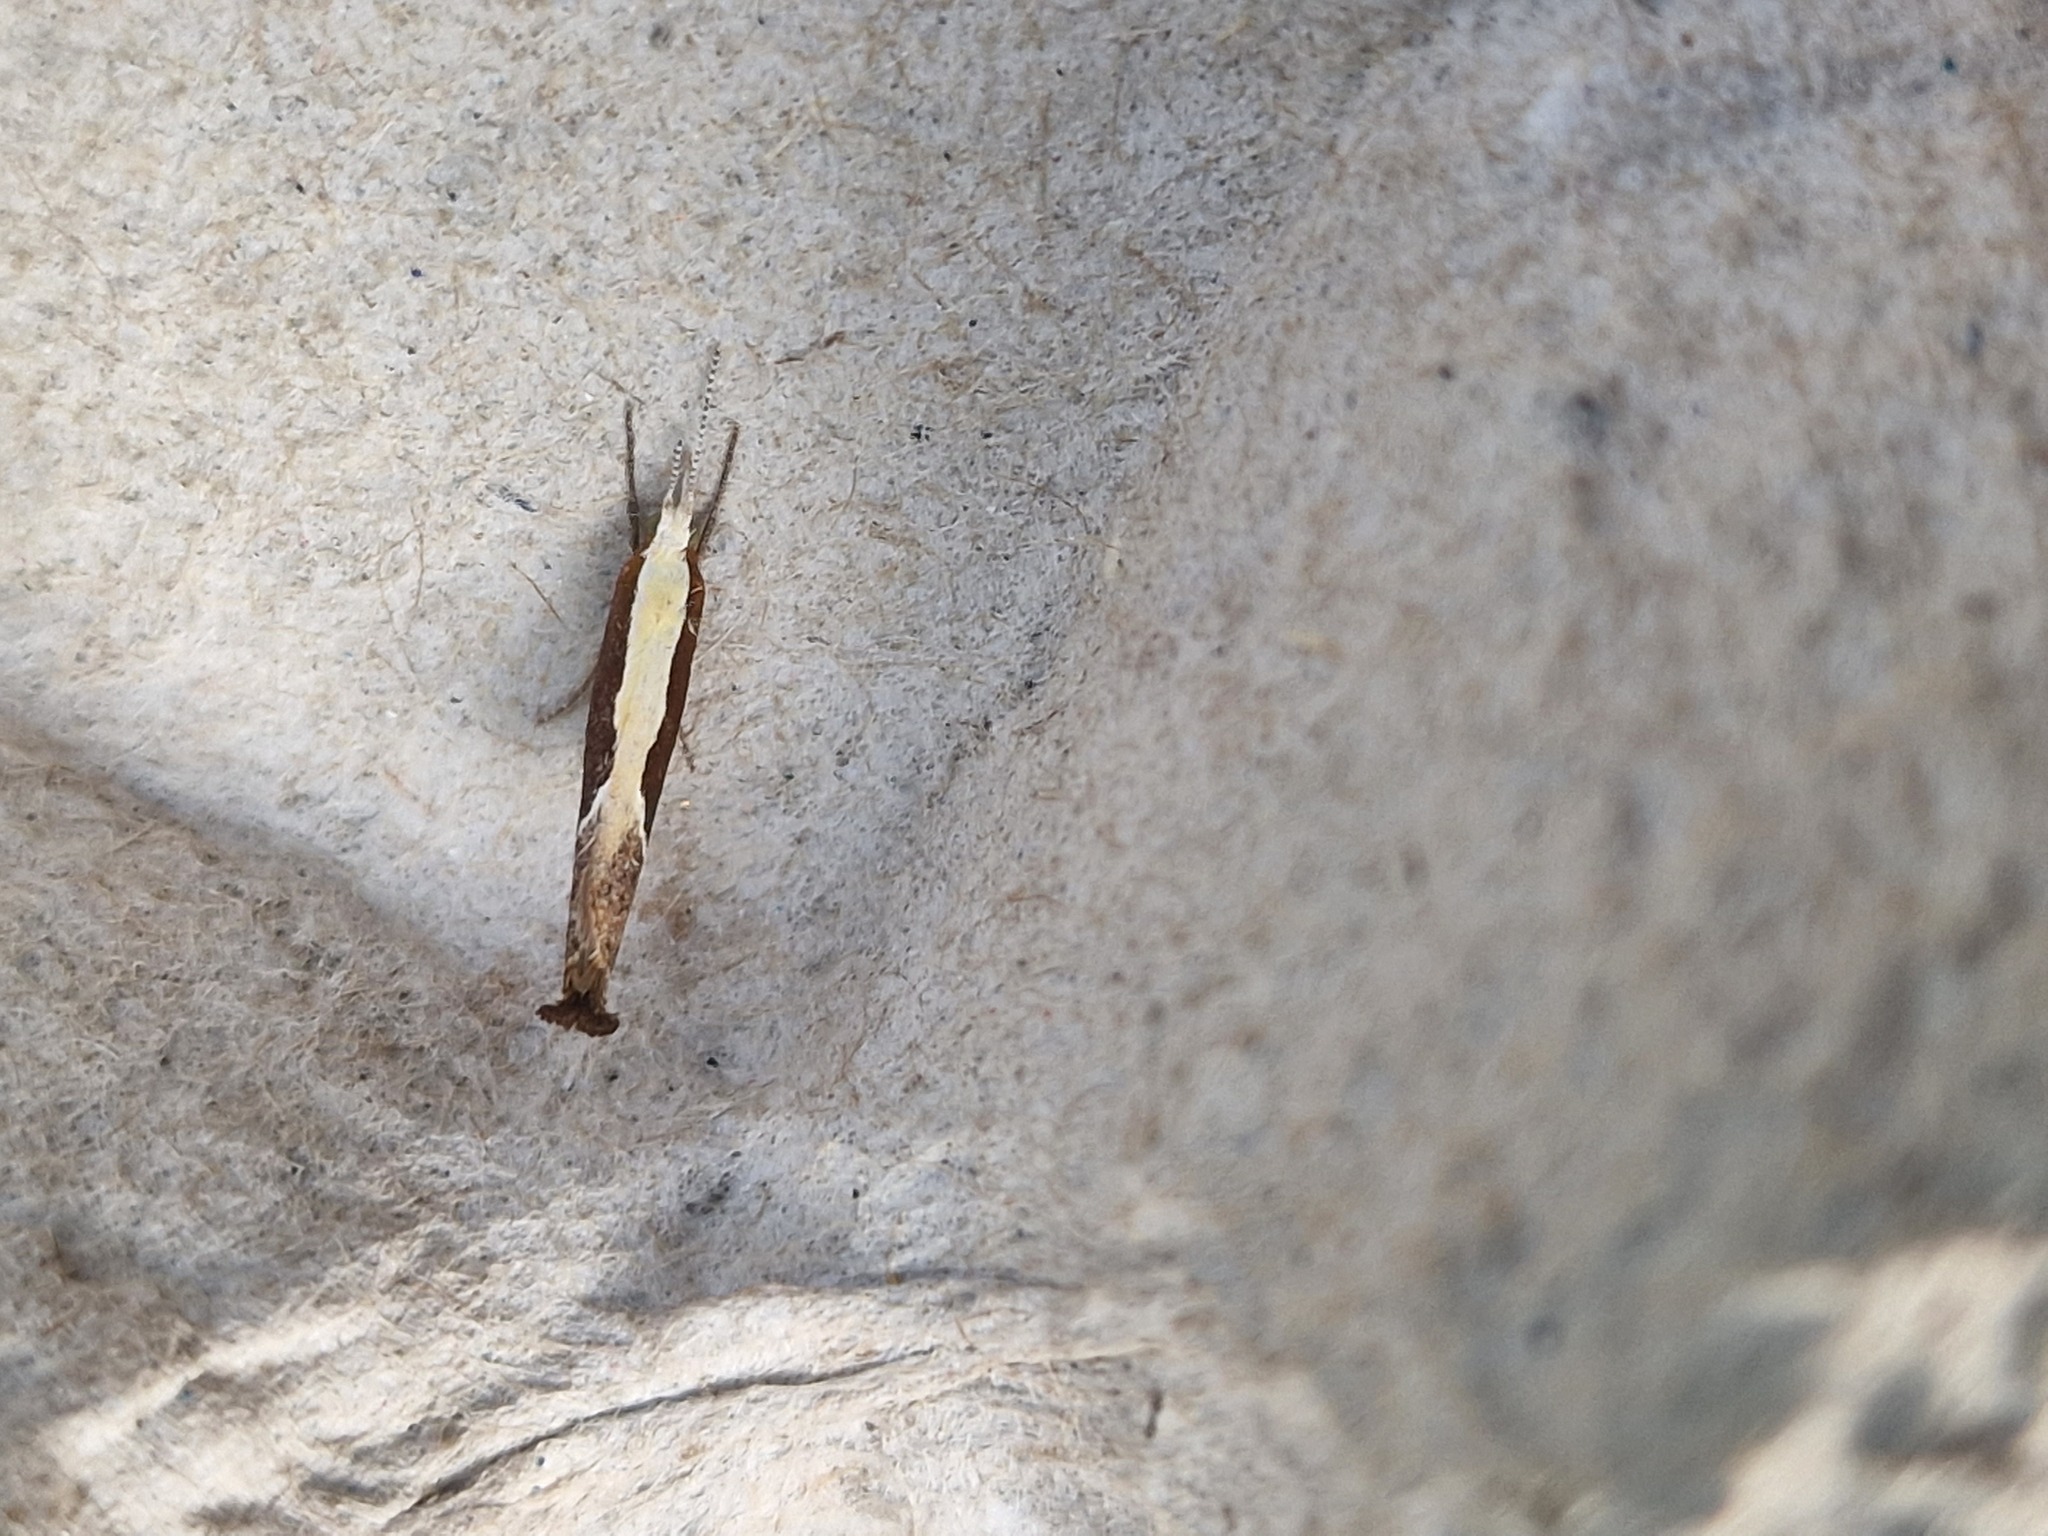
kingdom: Animalia
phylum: Arthropoda
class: Insecta
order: Lepidoptera
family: Ypsolophidae
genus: Ypsolopha
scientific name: Ypsolopha dentella
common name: Honeysuckle moth
